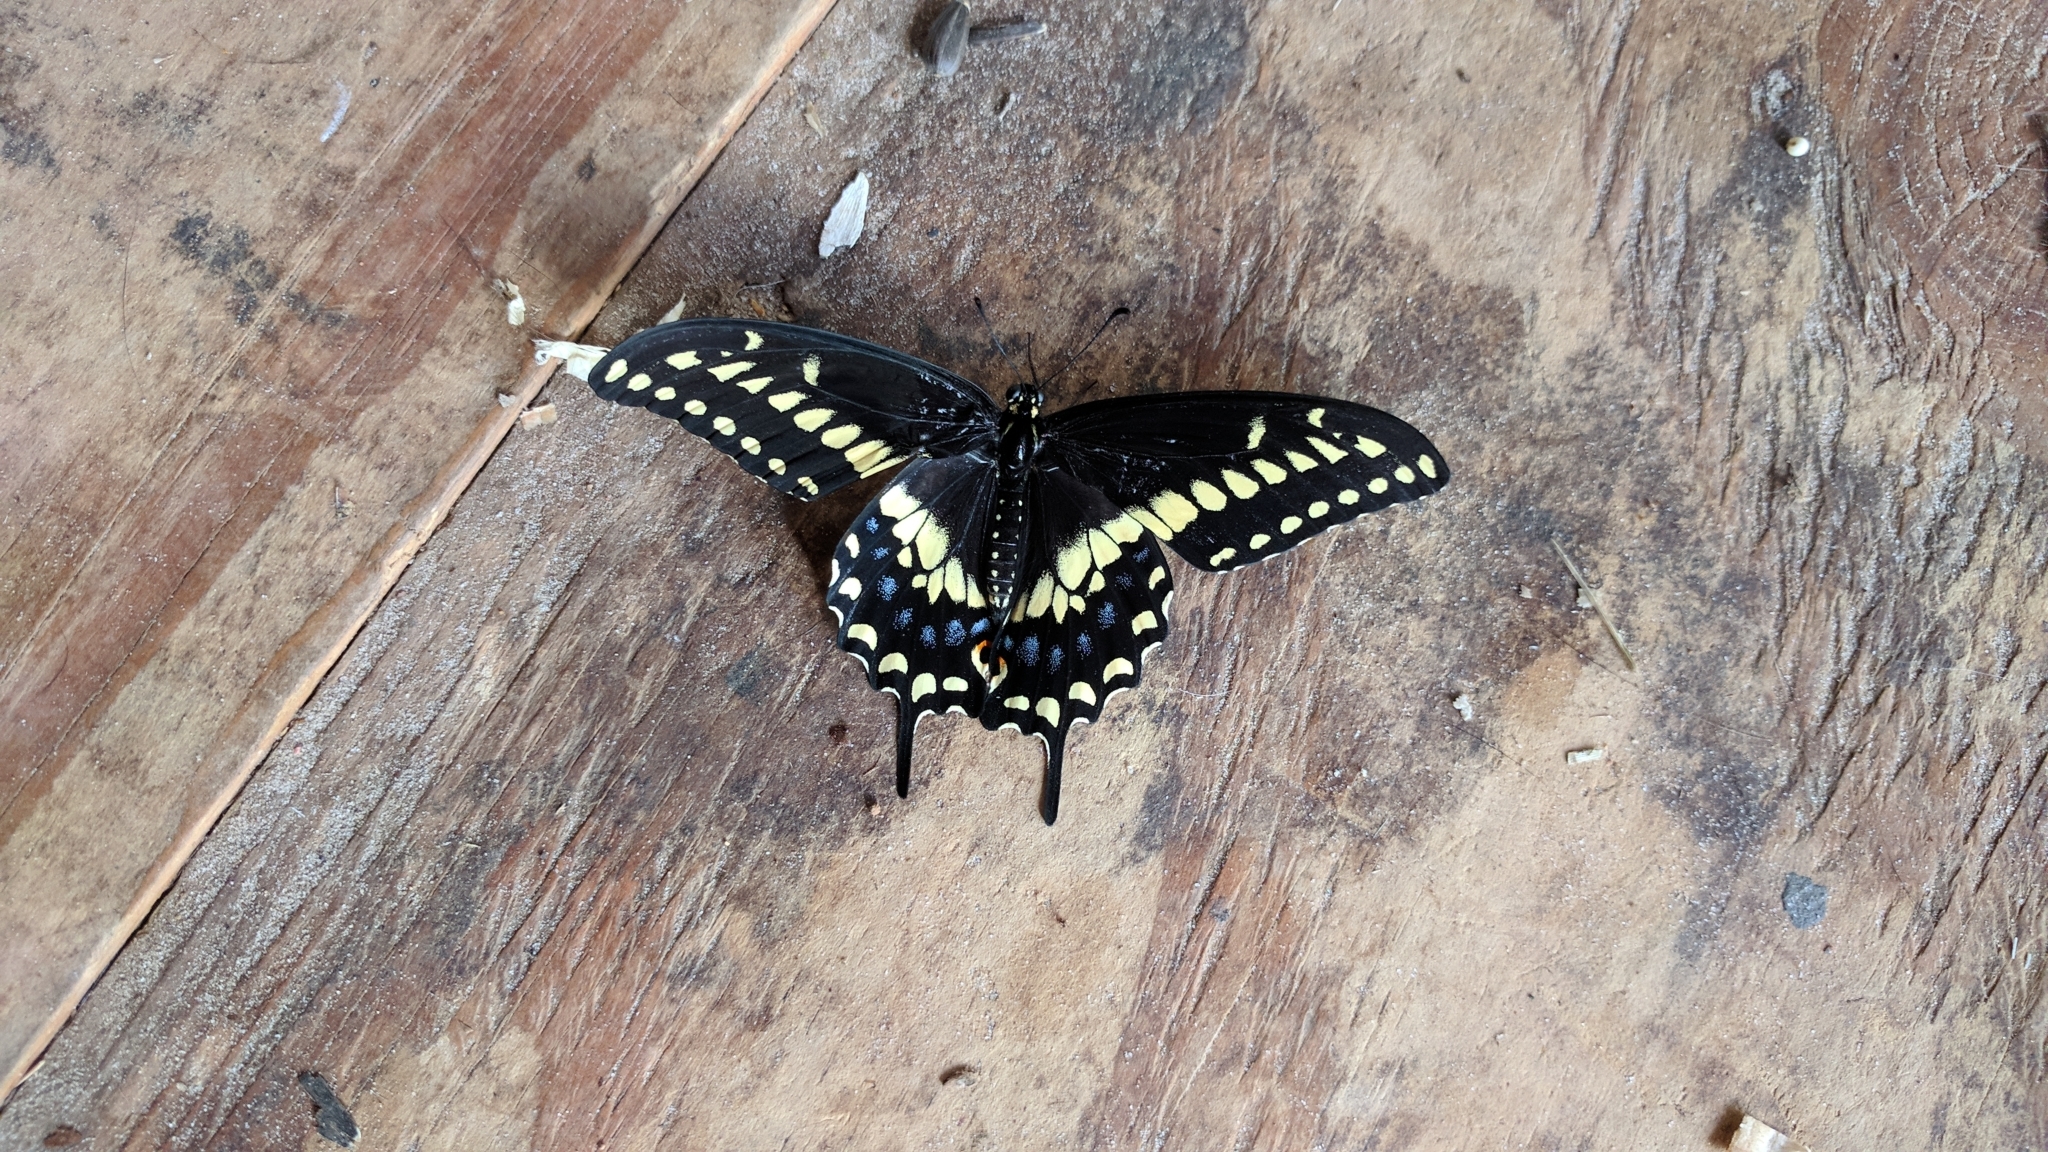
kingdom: Animalia
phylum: Arthropoda
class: Insecta
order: Lepidoptera
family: Papilionidae
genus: Papilio
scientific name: Papilio polyxenes
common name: Black swallowtail
